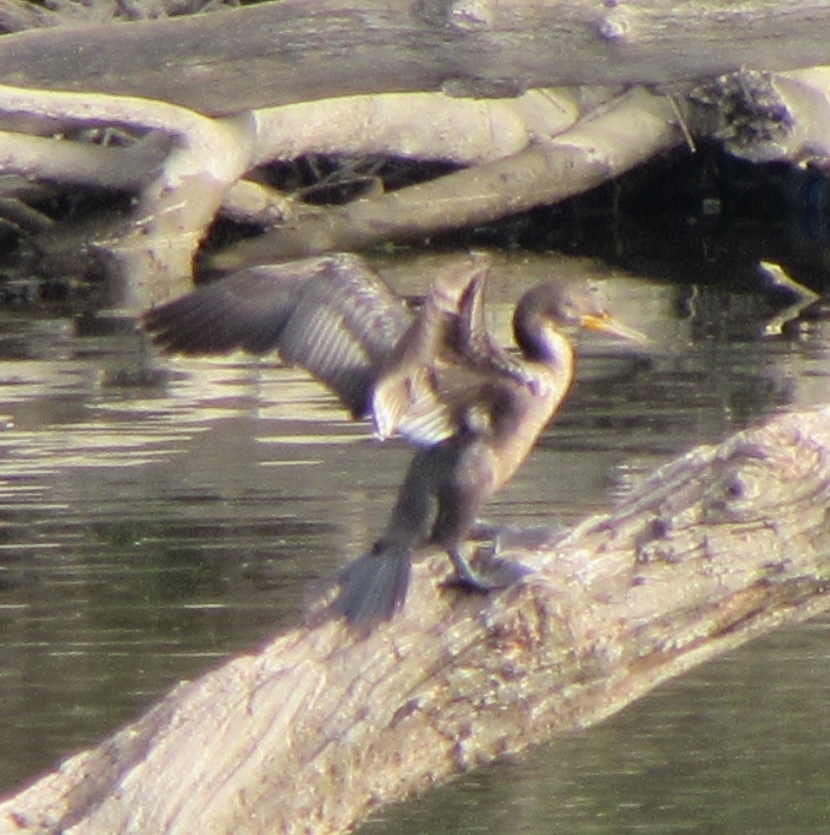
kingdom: Animalia
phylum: Chordata
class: Aves
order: Suliformes
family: Phalacrocoracidae
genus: Phalacrocorax
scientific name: Phalacrocorax auritus
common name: Double-crested cormorant
